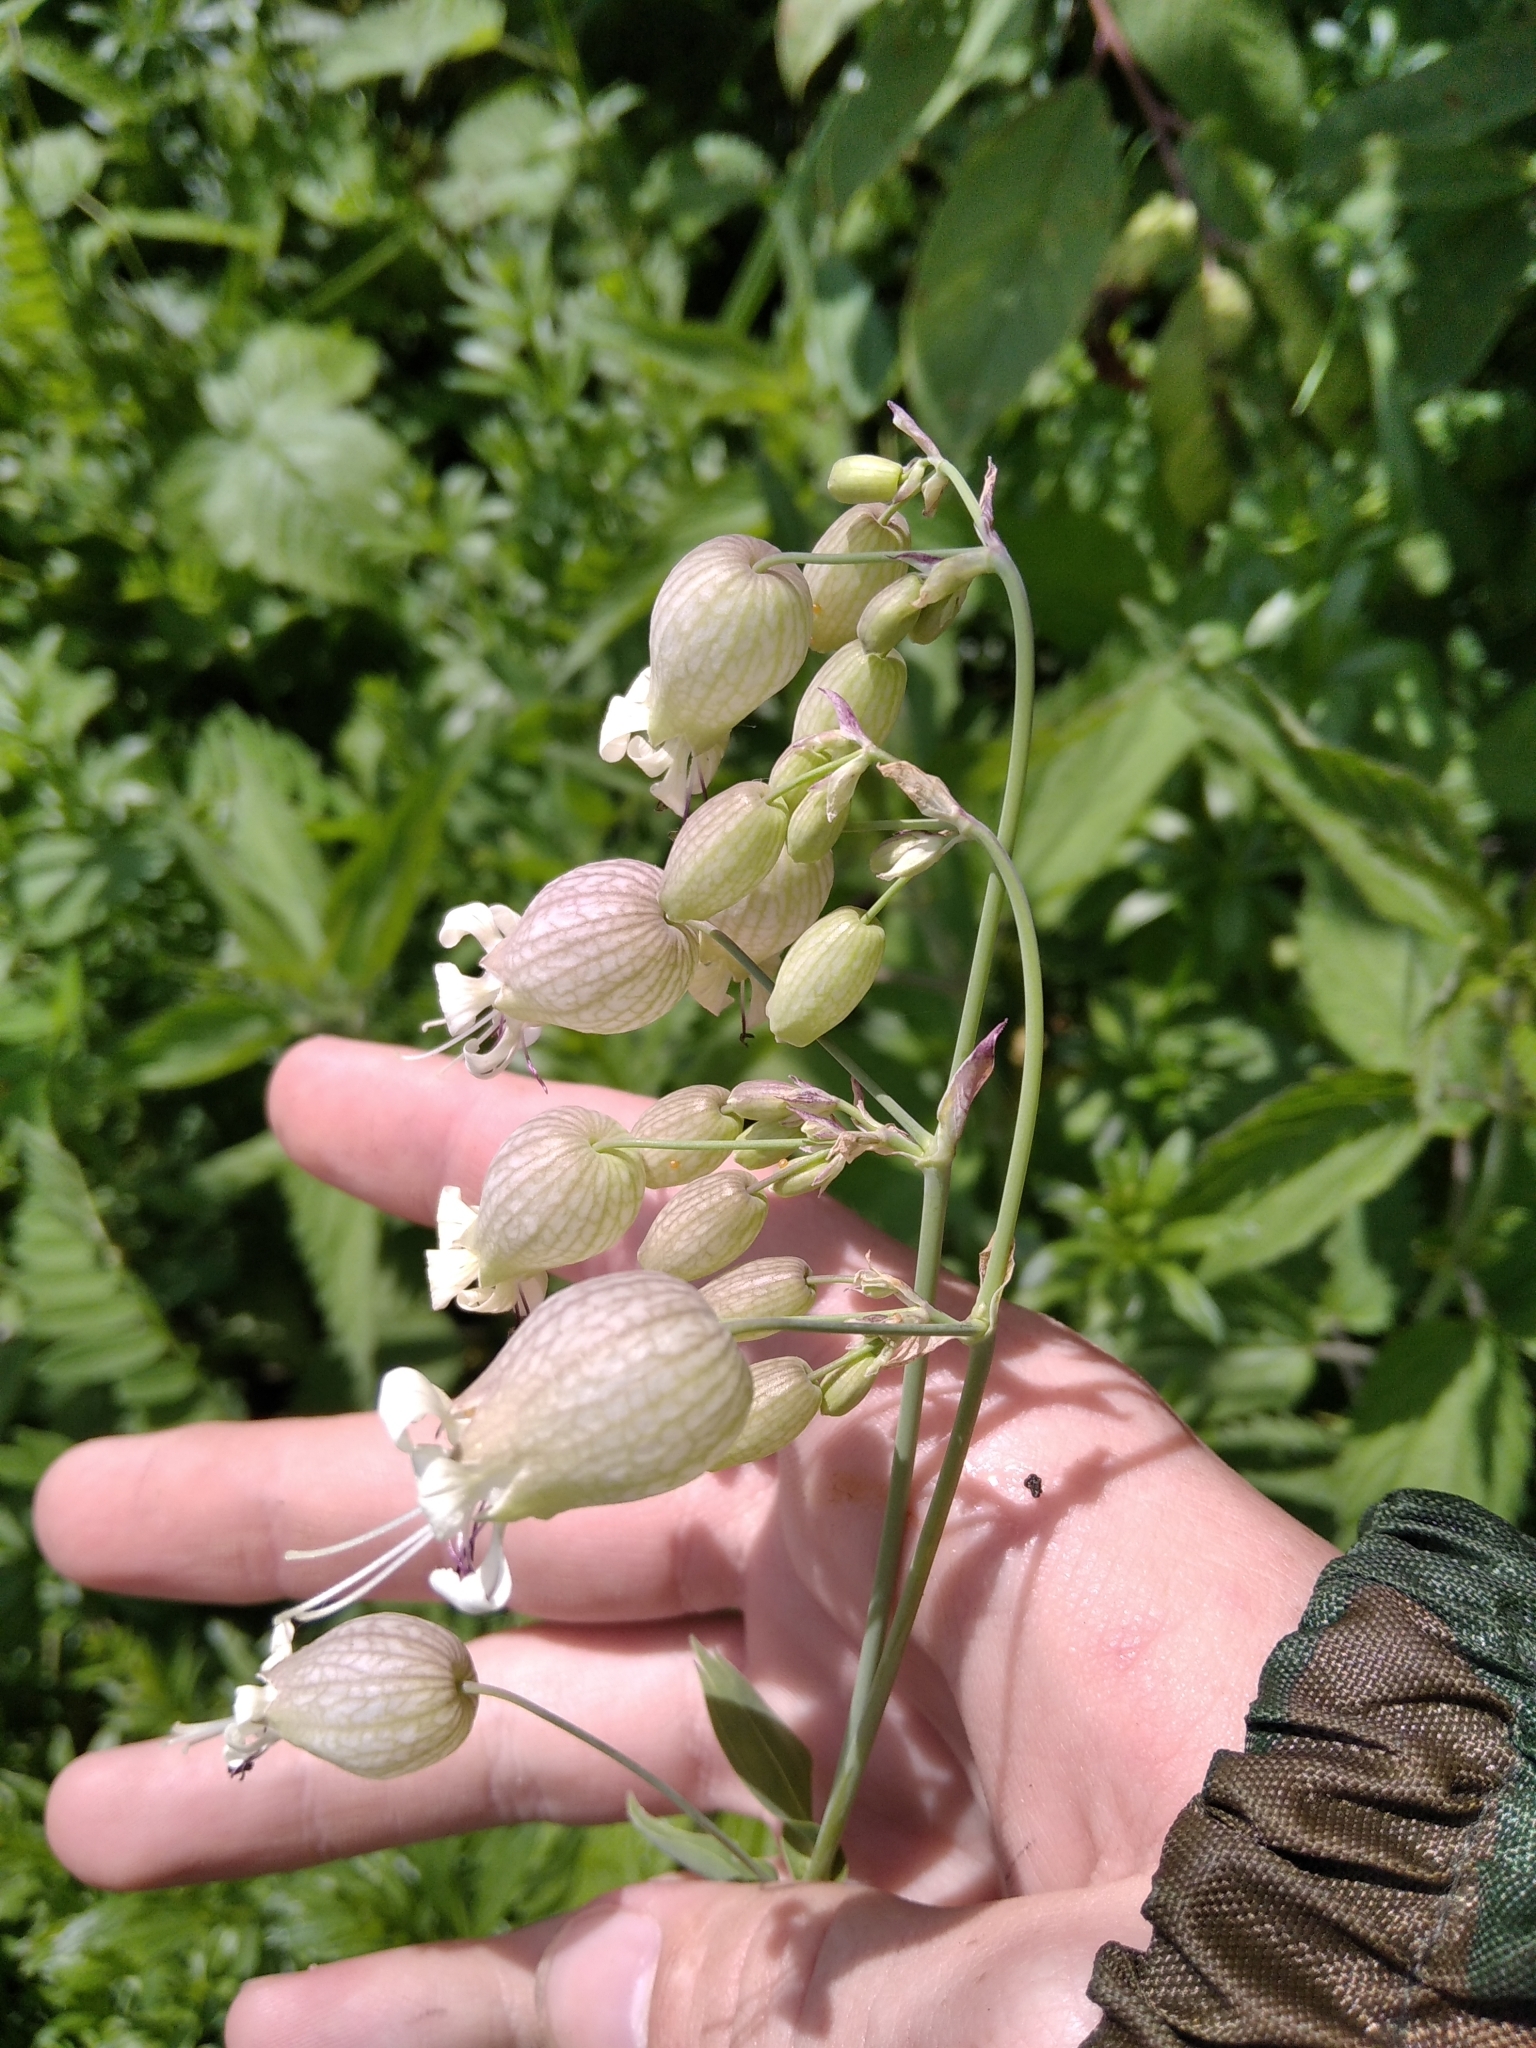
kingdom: Plantae
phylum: Tracheophyta
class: Magnoliopsida
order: Caryophyllales
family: Caryophyllaceae
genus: Silene
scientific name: Silene vulgaris
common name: Bladder campion
